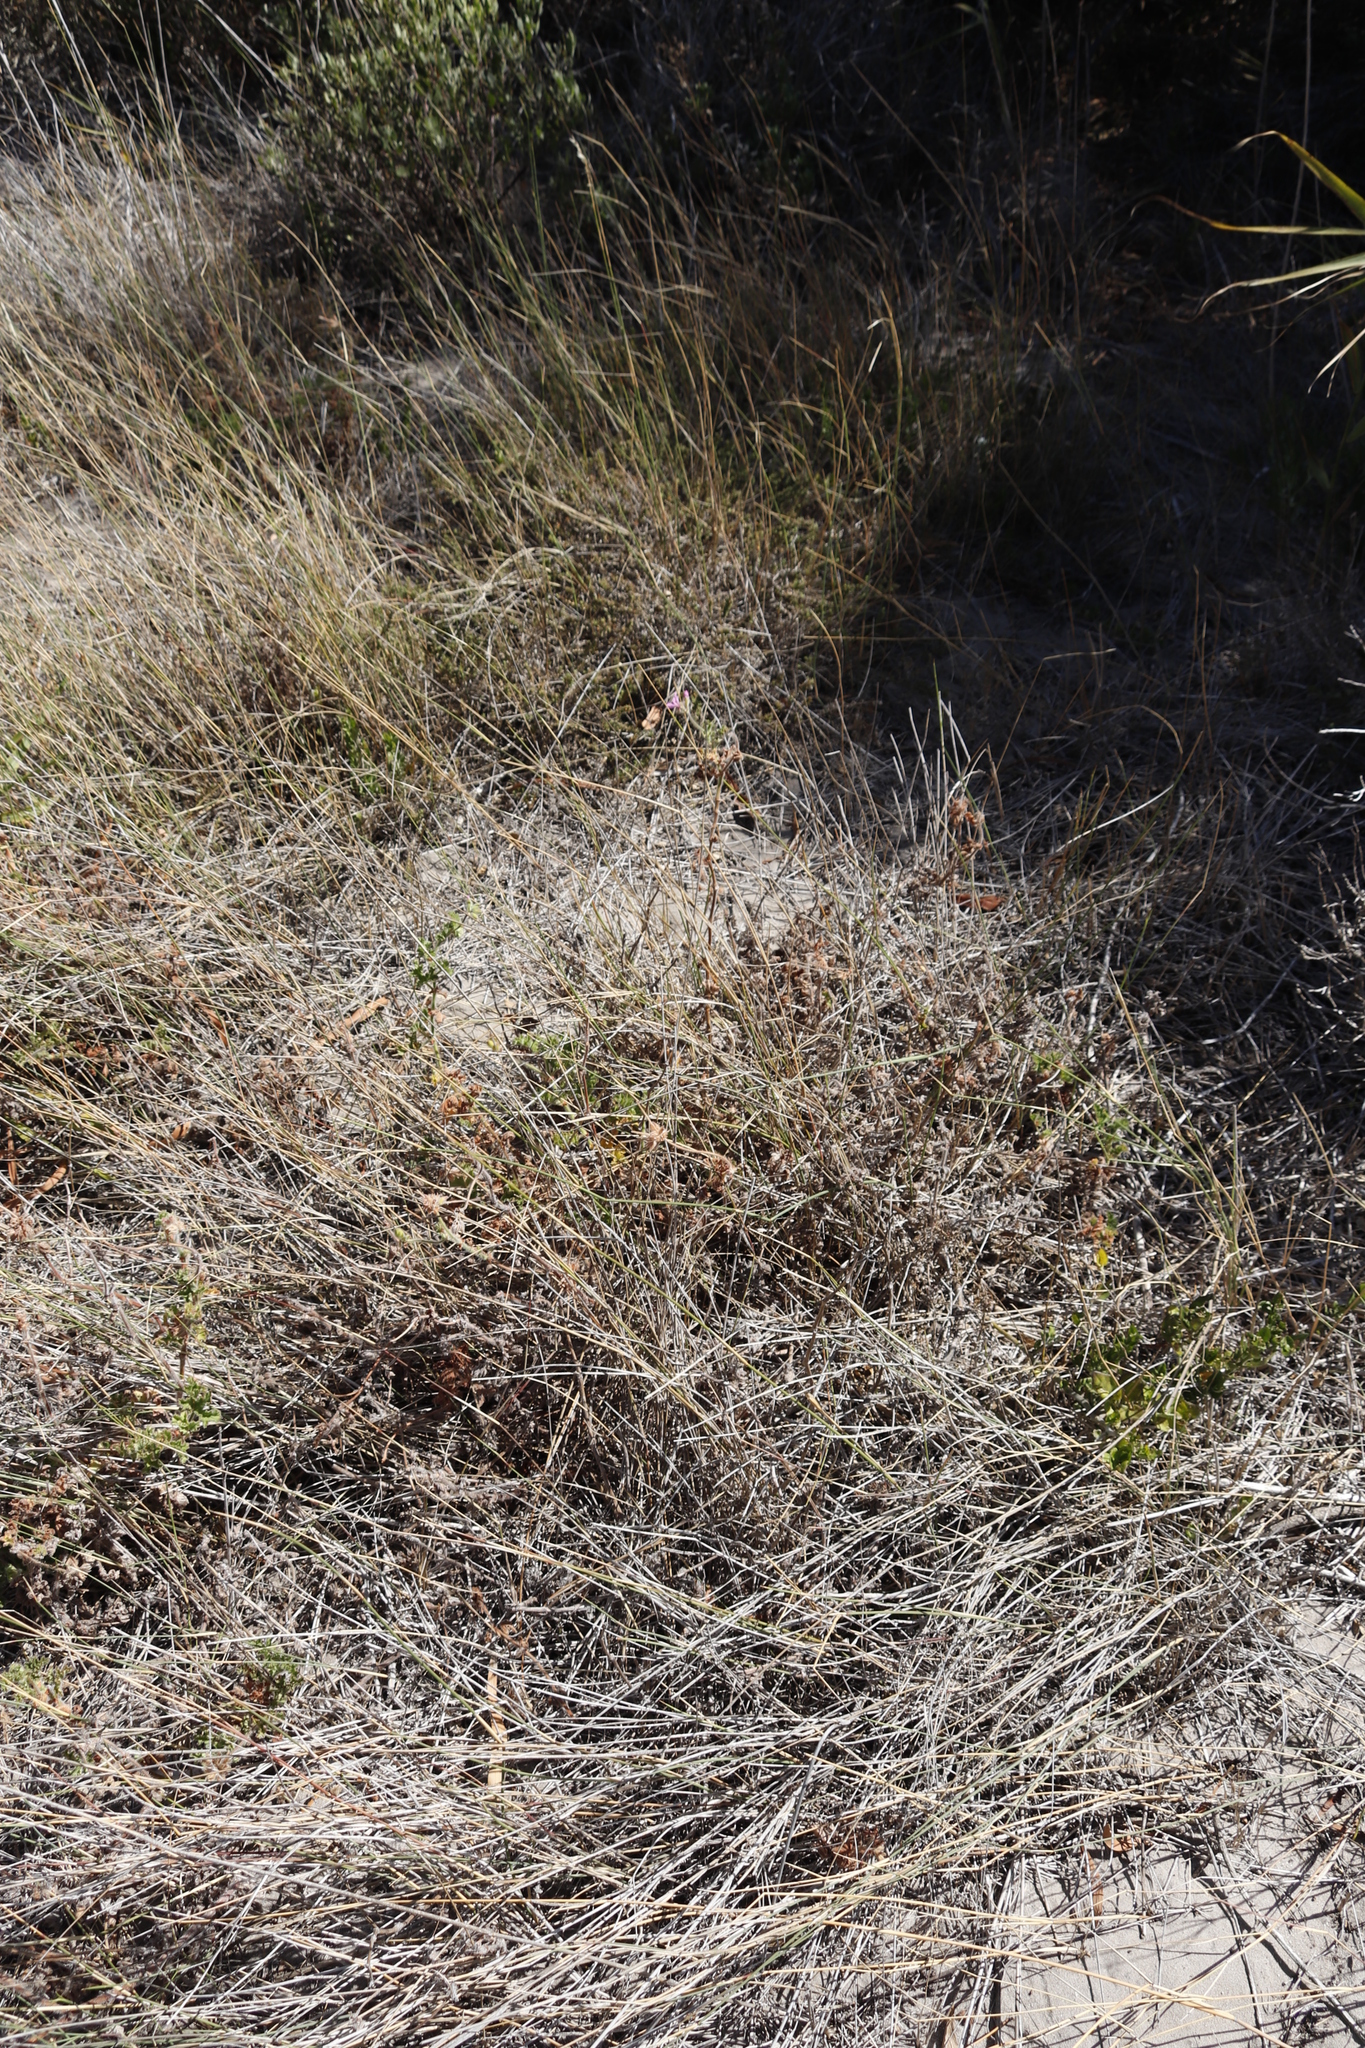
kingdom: Plantae
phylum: Tracheophyta
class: Magnoliopsida
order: Geraniales
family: Geraniaceae
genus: Pelargonium
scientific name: Pelargonium capitatum
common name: Rose scented geranium
